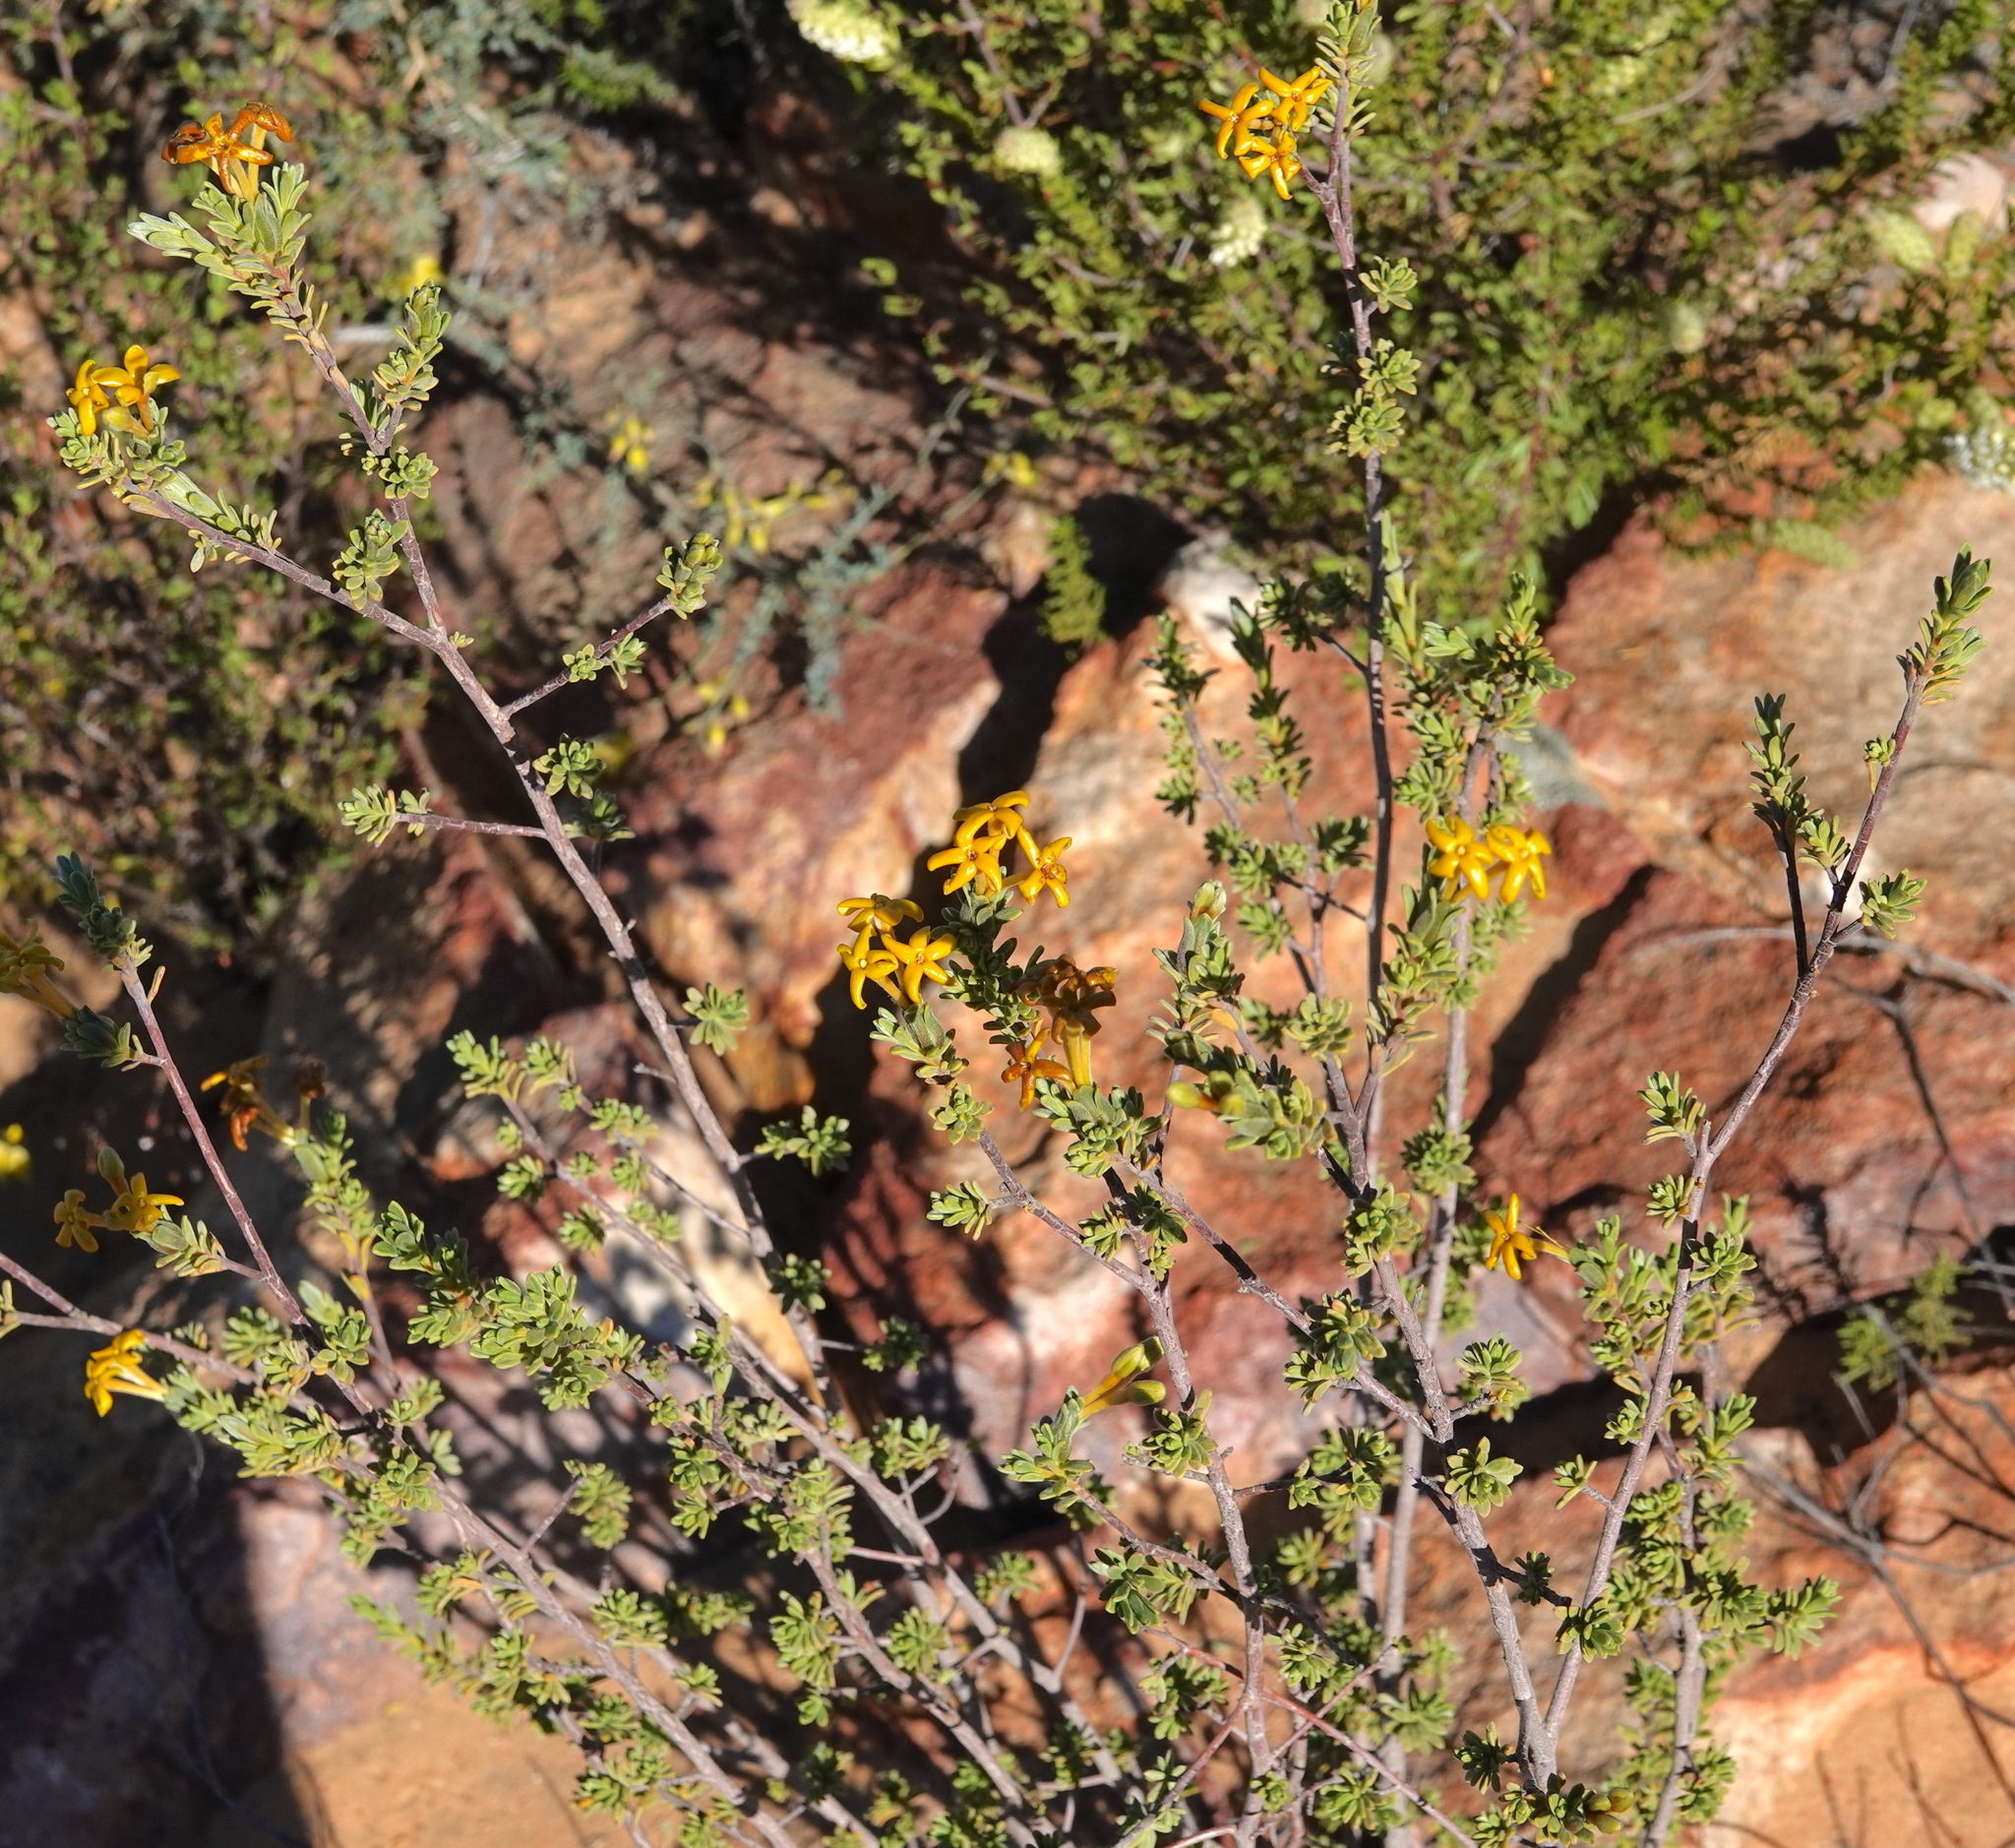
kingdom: Plantae
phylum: Tracheophyta
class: Magnoliopsida
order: Malvales
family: Thymelaeaceae
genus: Gnidia
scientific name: Gnidia deserticola
